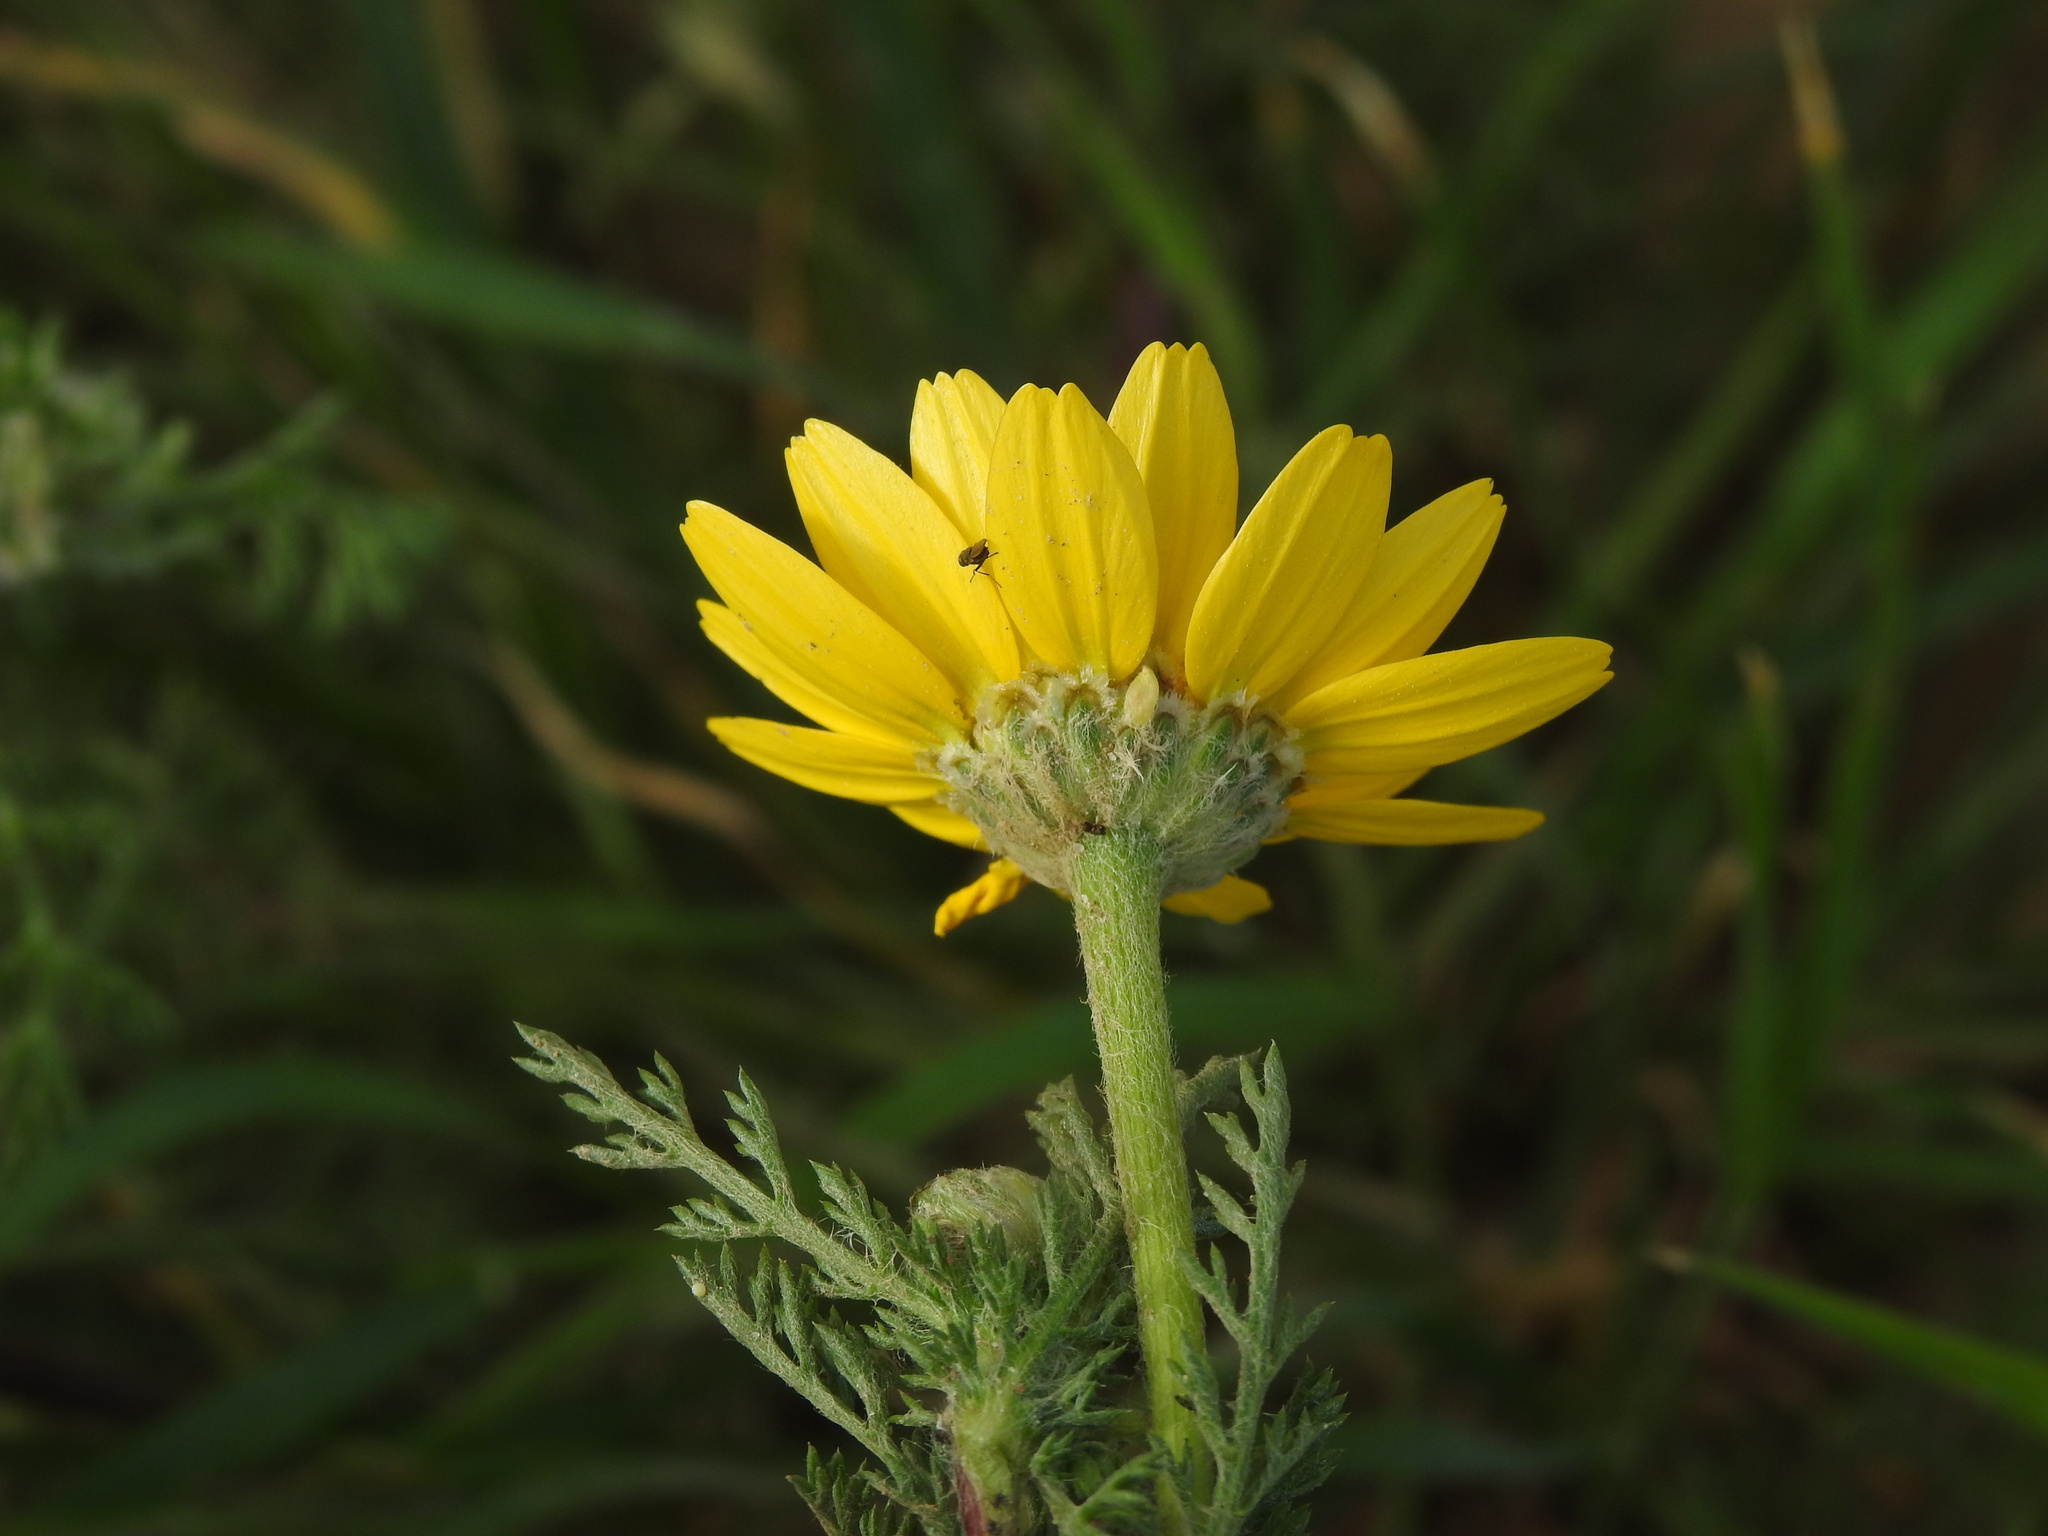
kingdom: Plantae
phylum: Tracheophyta
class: Magnoliopsida
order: Asterales
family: Asteraceae
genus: Anacyclus
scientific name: Anacyclus radiatus
